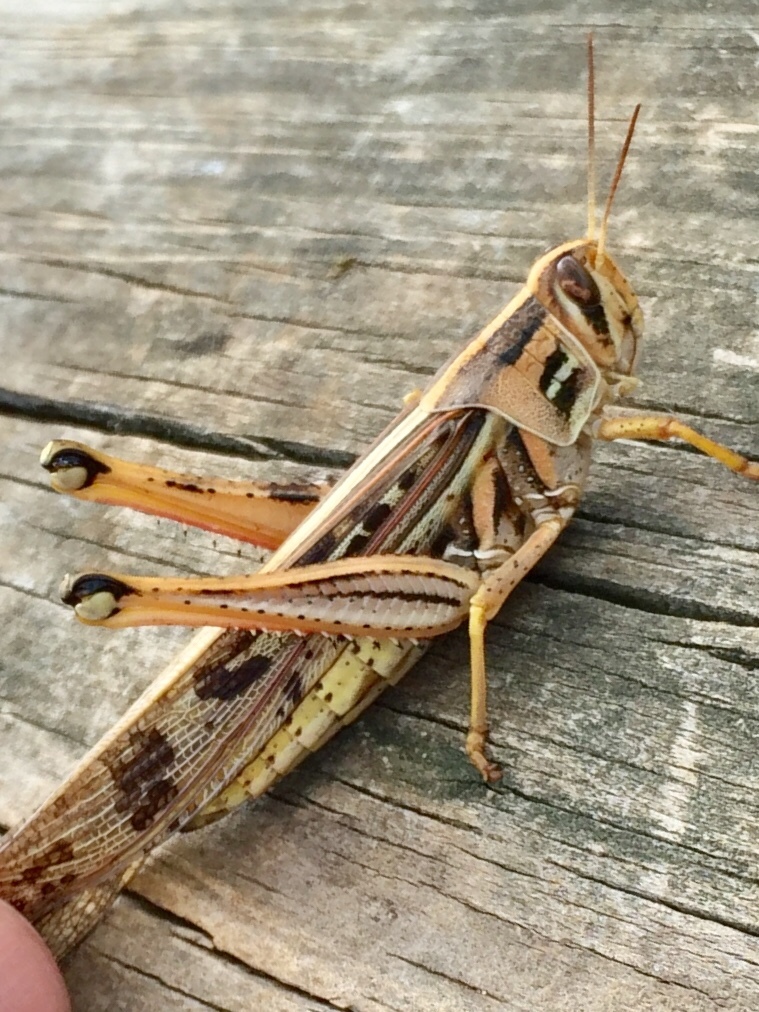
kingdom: Animalia
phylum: Arthropoda
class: Insecta
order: Orthoptera
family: Acrididae
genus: Schistocerca
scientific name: Schistocerca americana
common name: American bird locust
